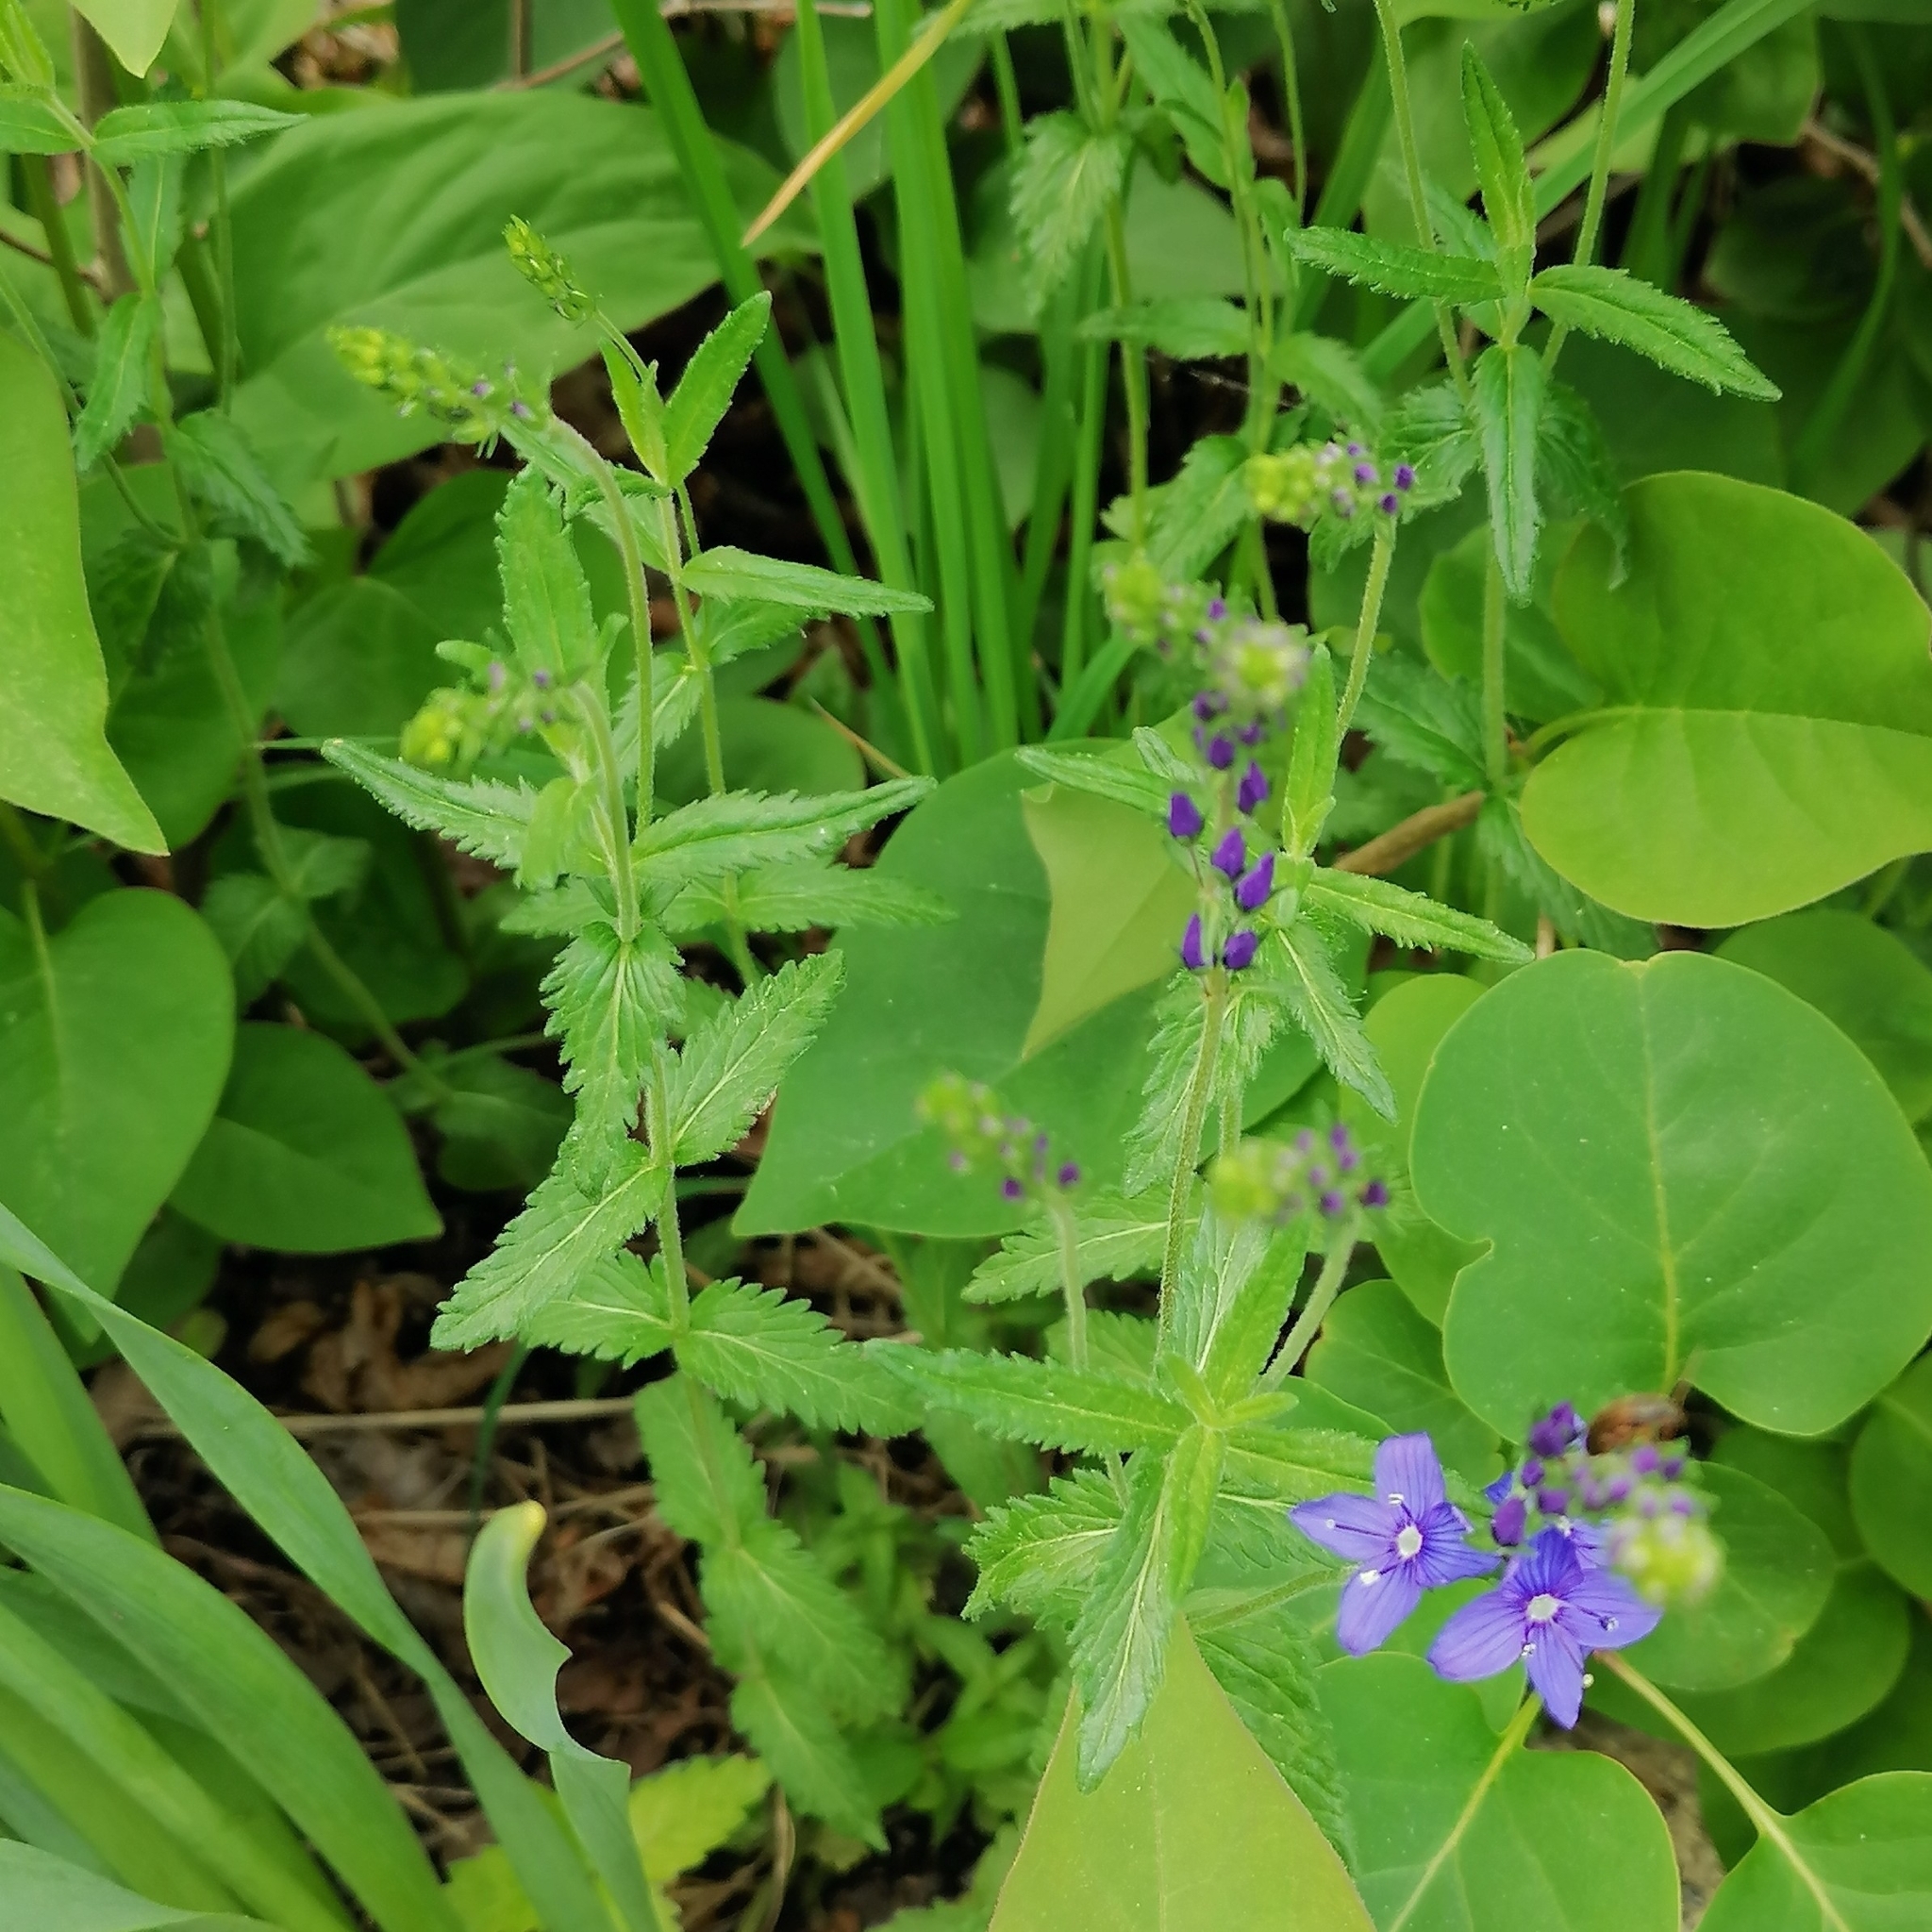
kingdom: Plantae
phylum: Tracheophyta
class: Magnoliopsida
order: Lamiales
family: Plantaginaceae
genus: Veronica
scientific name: Veronica teucrium
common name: Large speedwell
